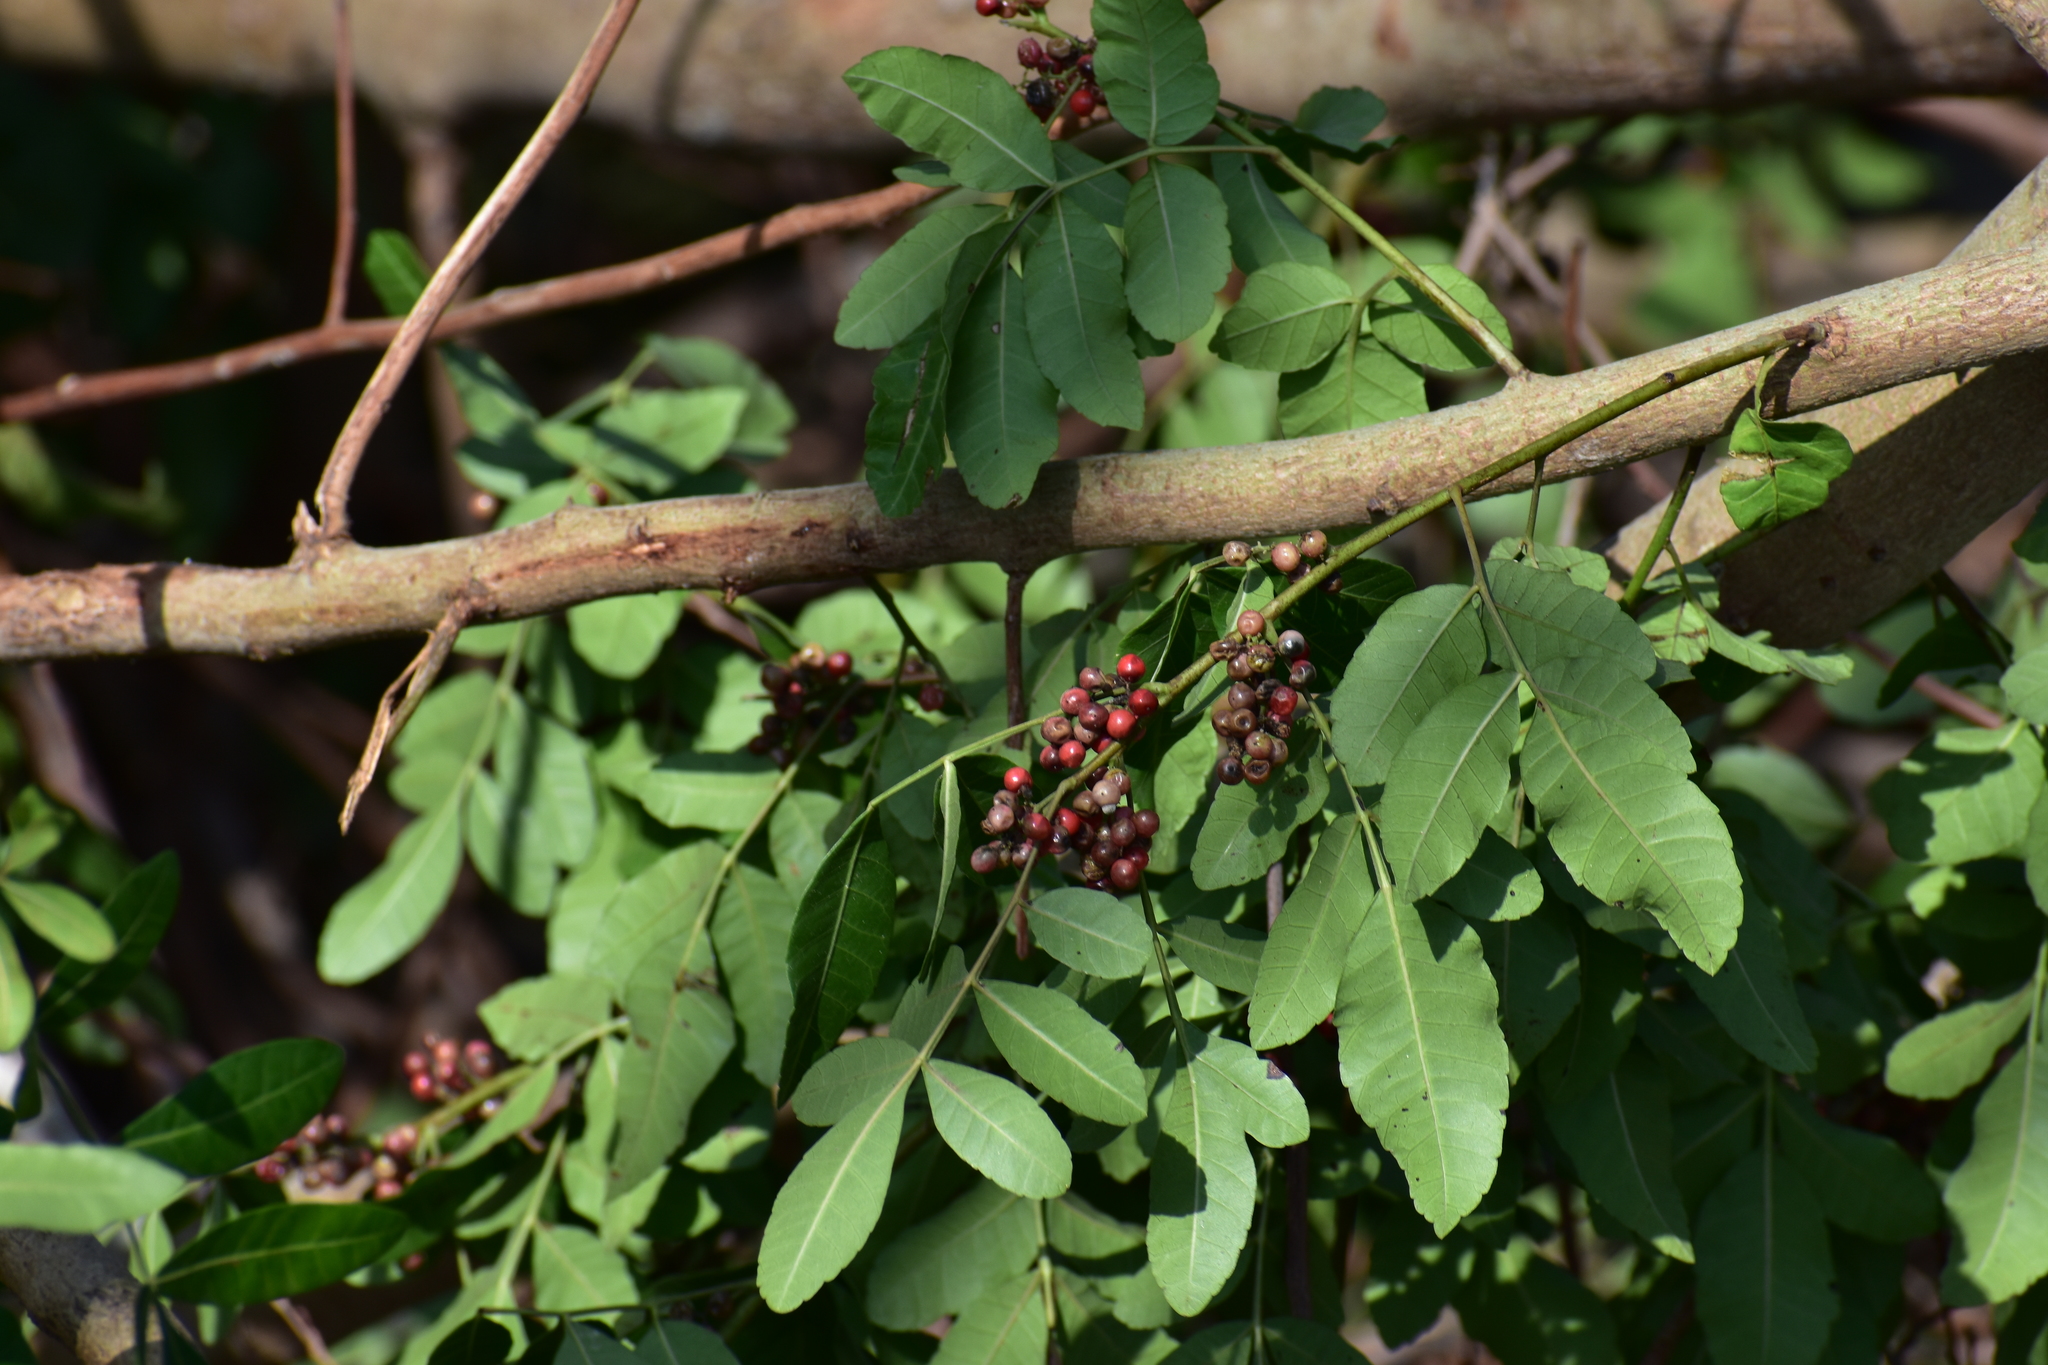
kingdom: Plantae
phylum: Tracheophyta
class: Magnoliopsida
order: Sapindales
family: Anacardiaceae
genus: Schinus
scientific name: Schinus terebinthifolia
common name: Brazilian peppertree
